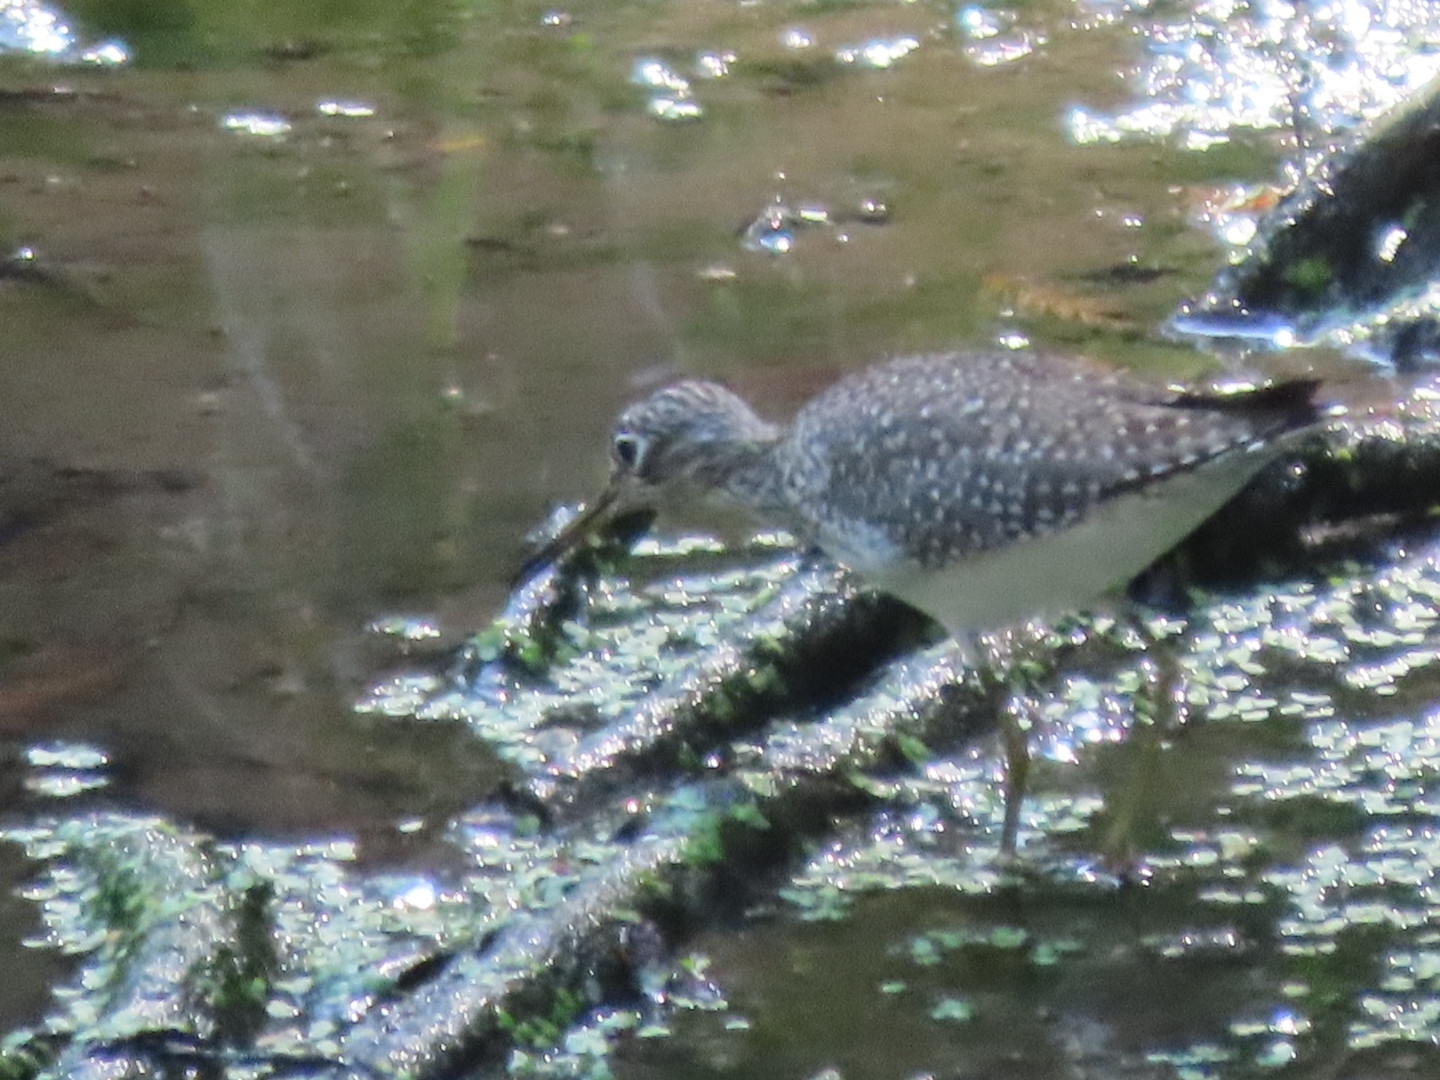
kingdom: Animalia
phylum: Chordata
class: Aves
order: Charadriiformes
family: Scolopacidae
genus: Tringa
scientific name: Tringa solitaria
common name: Solitary sandpiper
